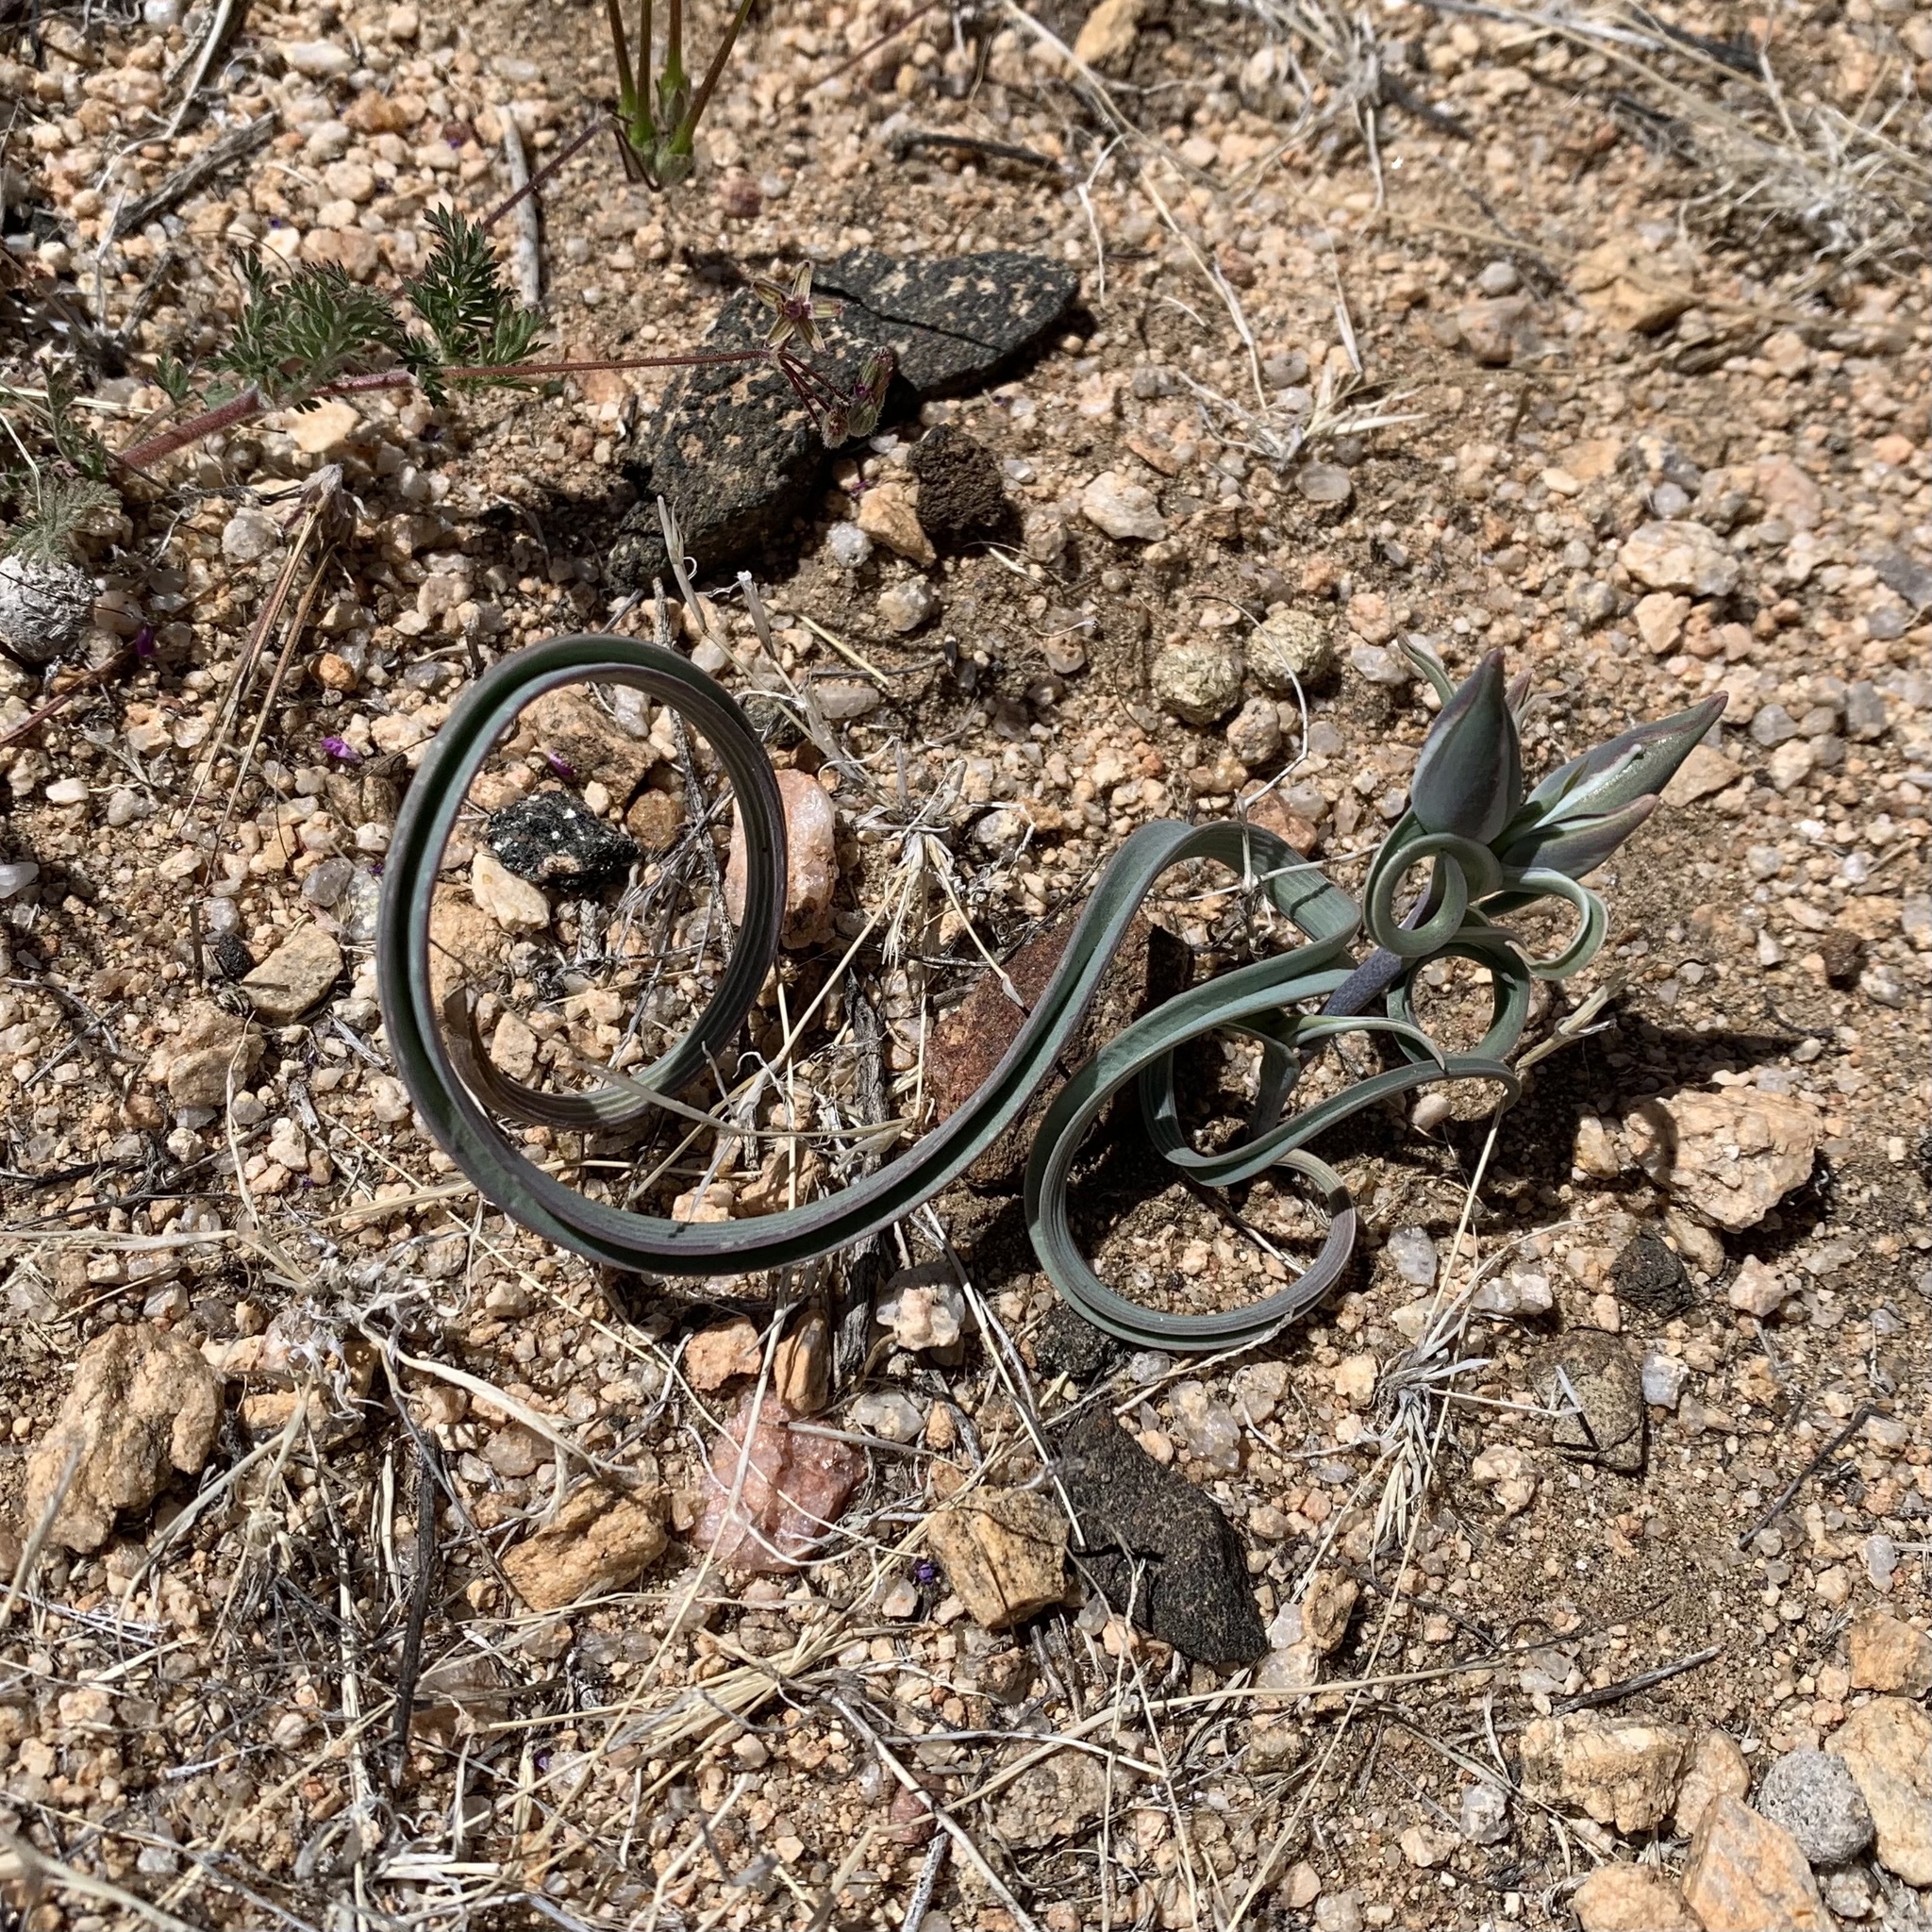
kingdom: Plantae
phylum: Tracheophyta
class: Liliopsida
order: Liliales
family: Liliaceae
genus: Calochortus
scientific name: Calochortus kennedyi
